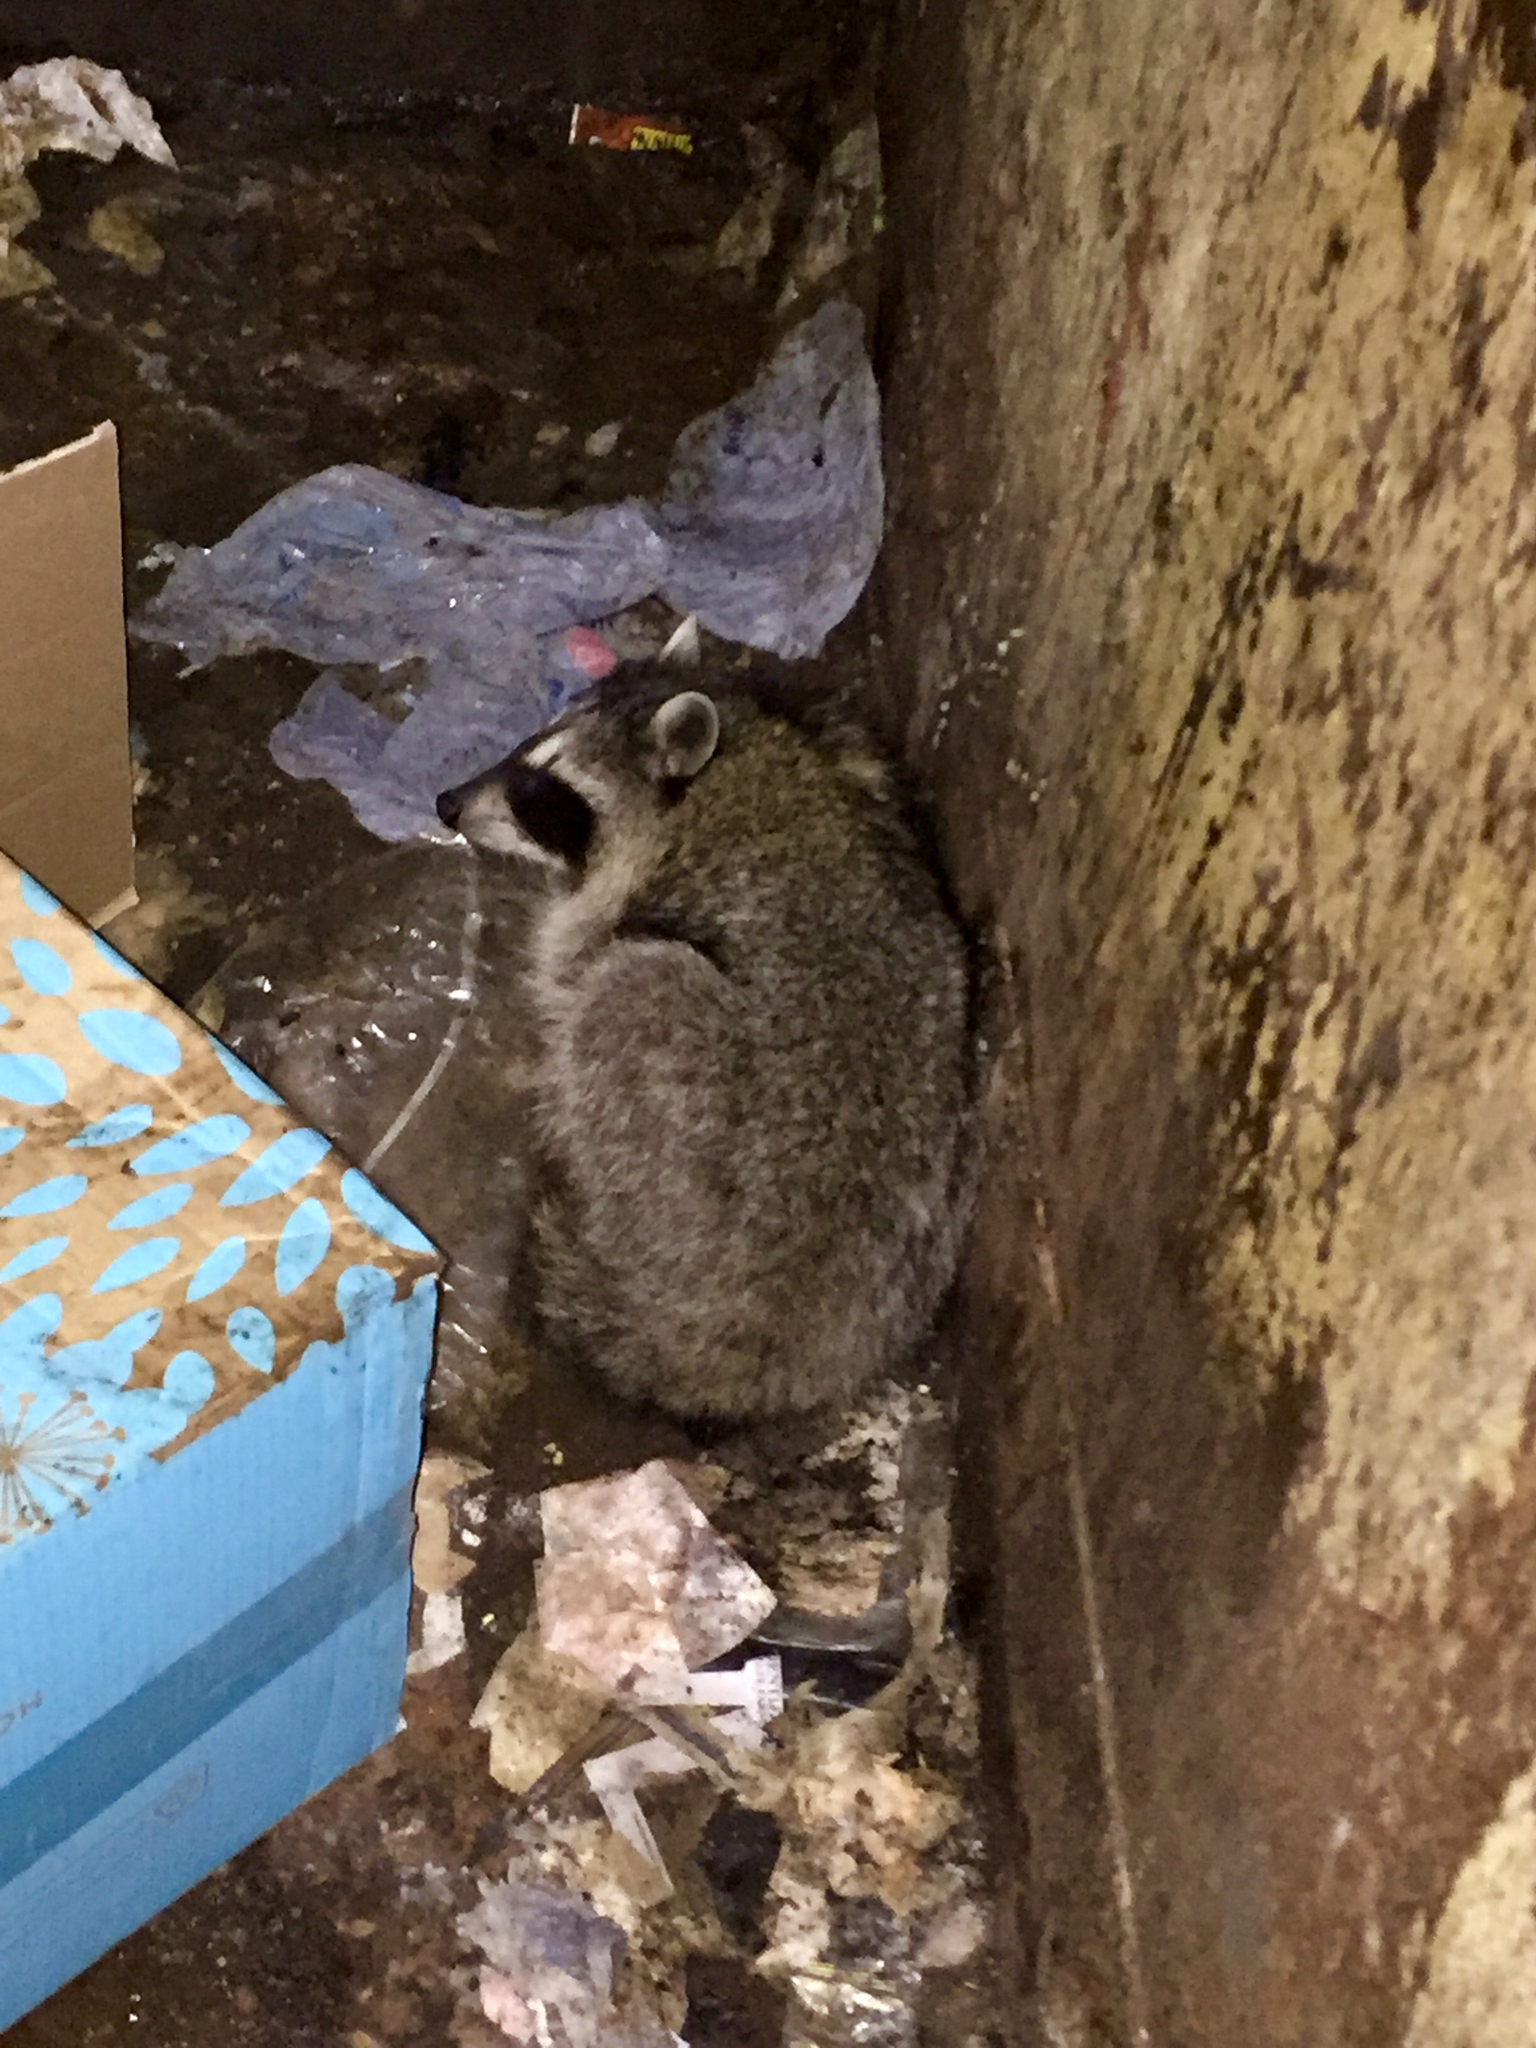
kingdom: Animalia
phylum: Chordata
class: Mammalia
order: Carnivora
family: Procyonidae
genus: Procyon
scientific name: Procyon lotor
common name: Raccoon
